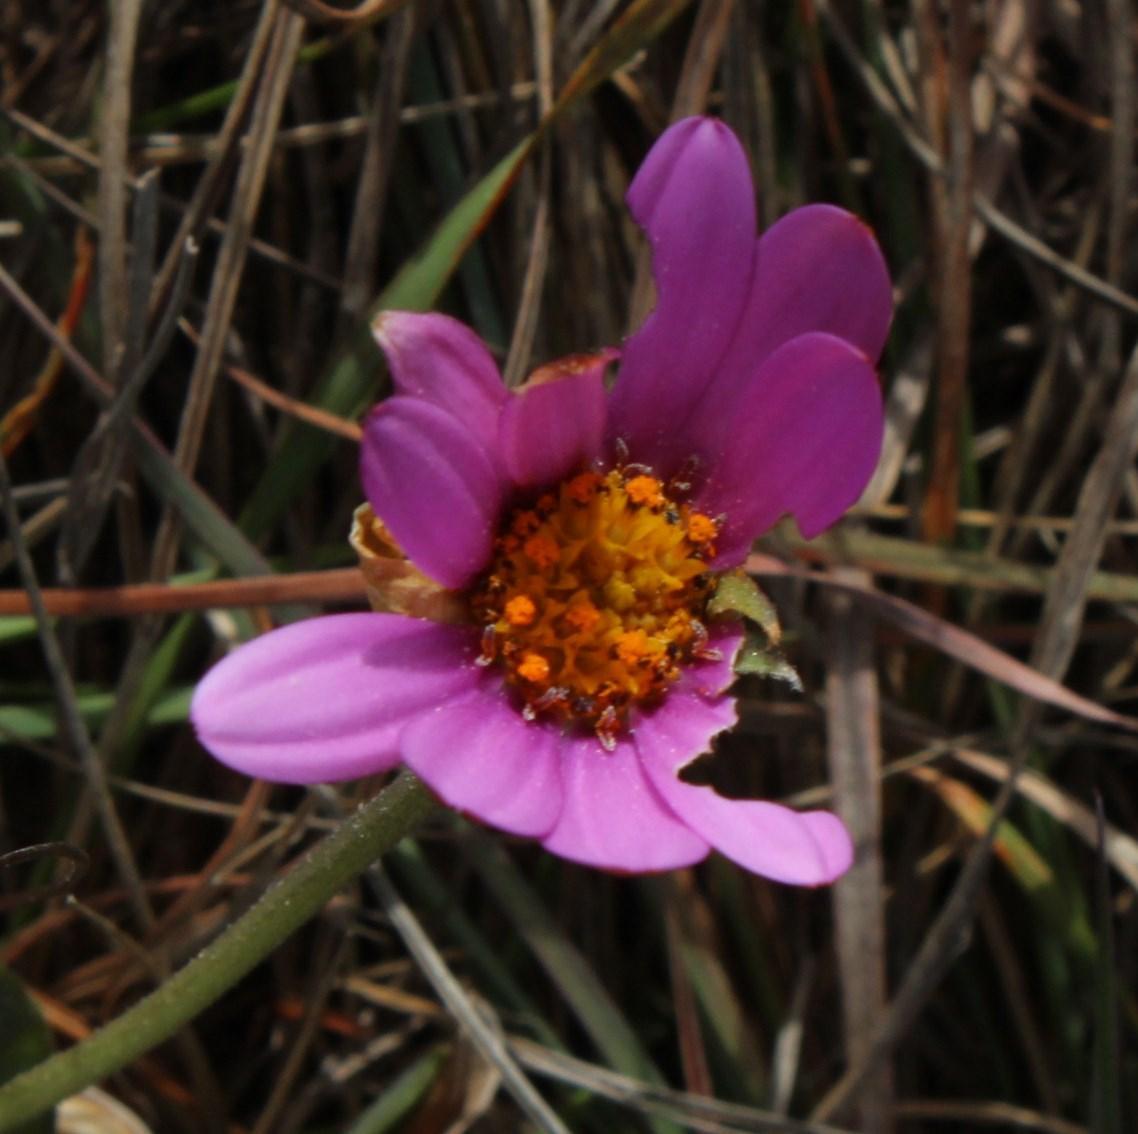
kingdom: Plantae
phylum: Tracheophyta
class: Magnoliopsida
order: Asterales
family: Asteraceae
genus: Dimorphotheca
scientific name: Dimorphotheca jucunda
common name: Osteospermum
